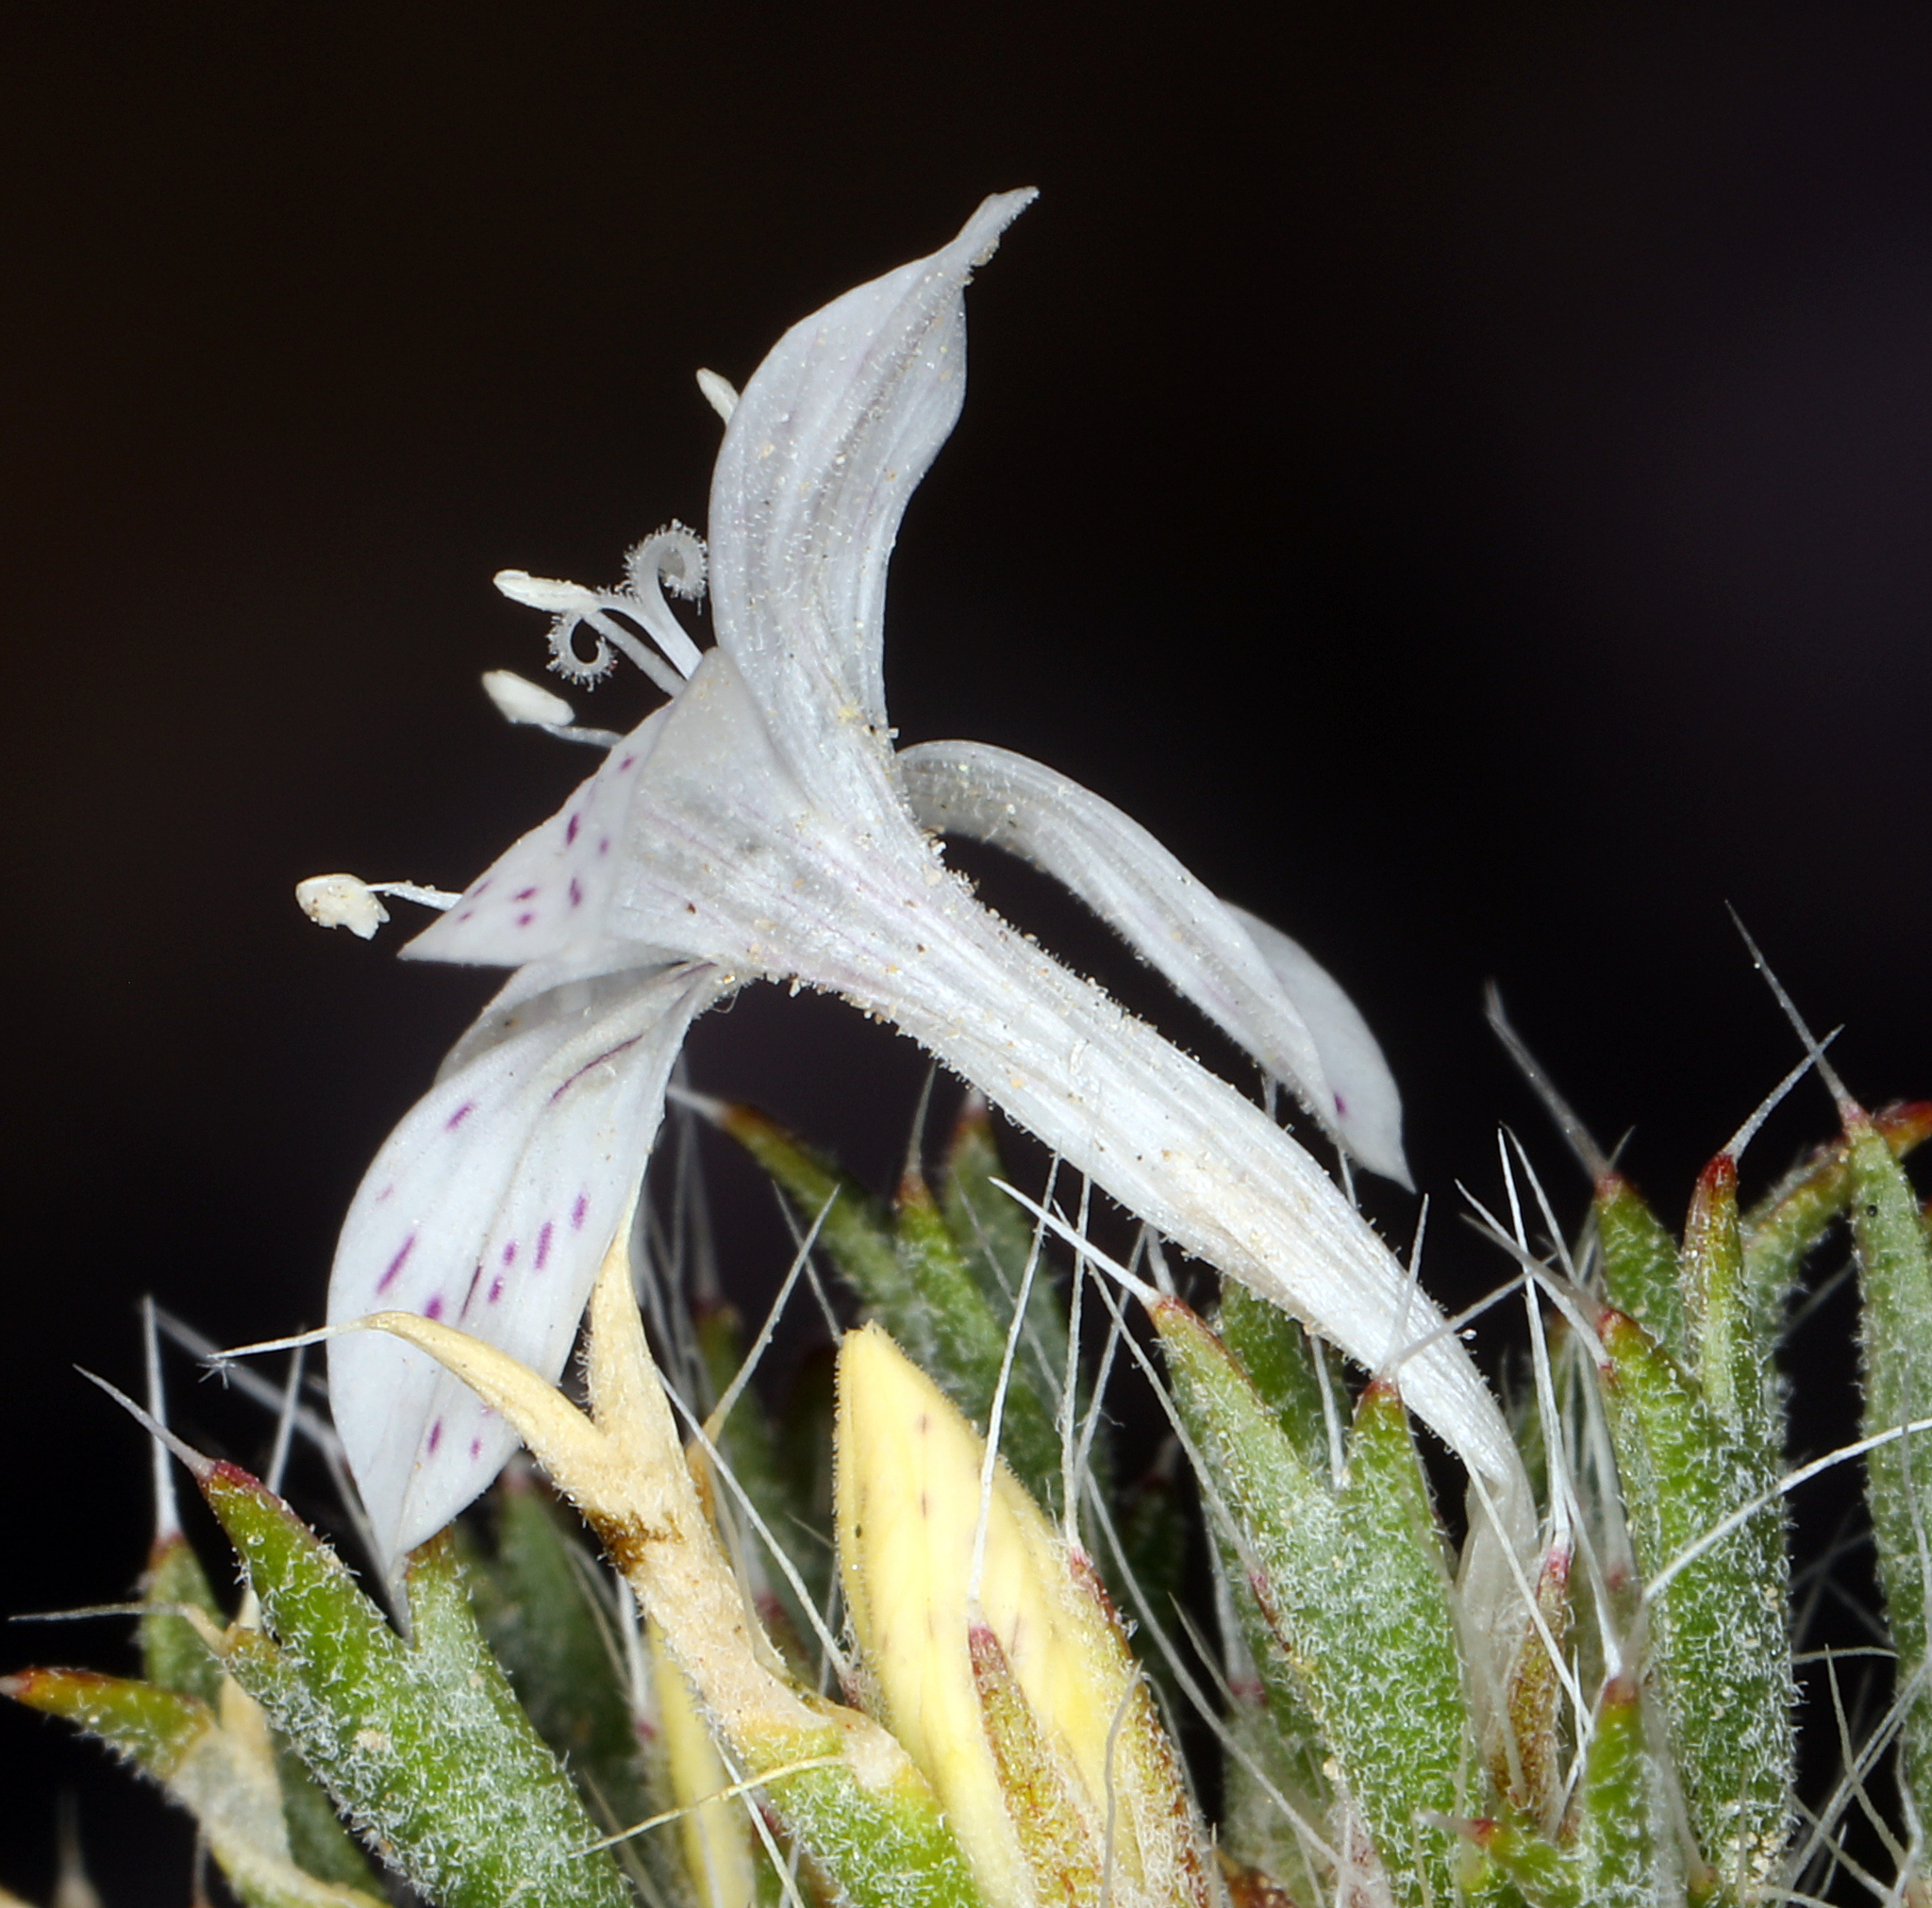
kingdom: Plantae
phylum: Tracheophyta
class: Magnoliopsida
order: Ericales
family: Polemoniaceae
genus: Langloisia
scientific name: Langloisia setosissima
